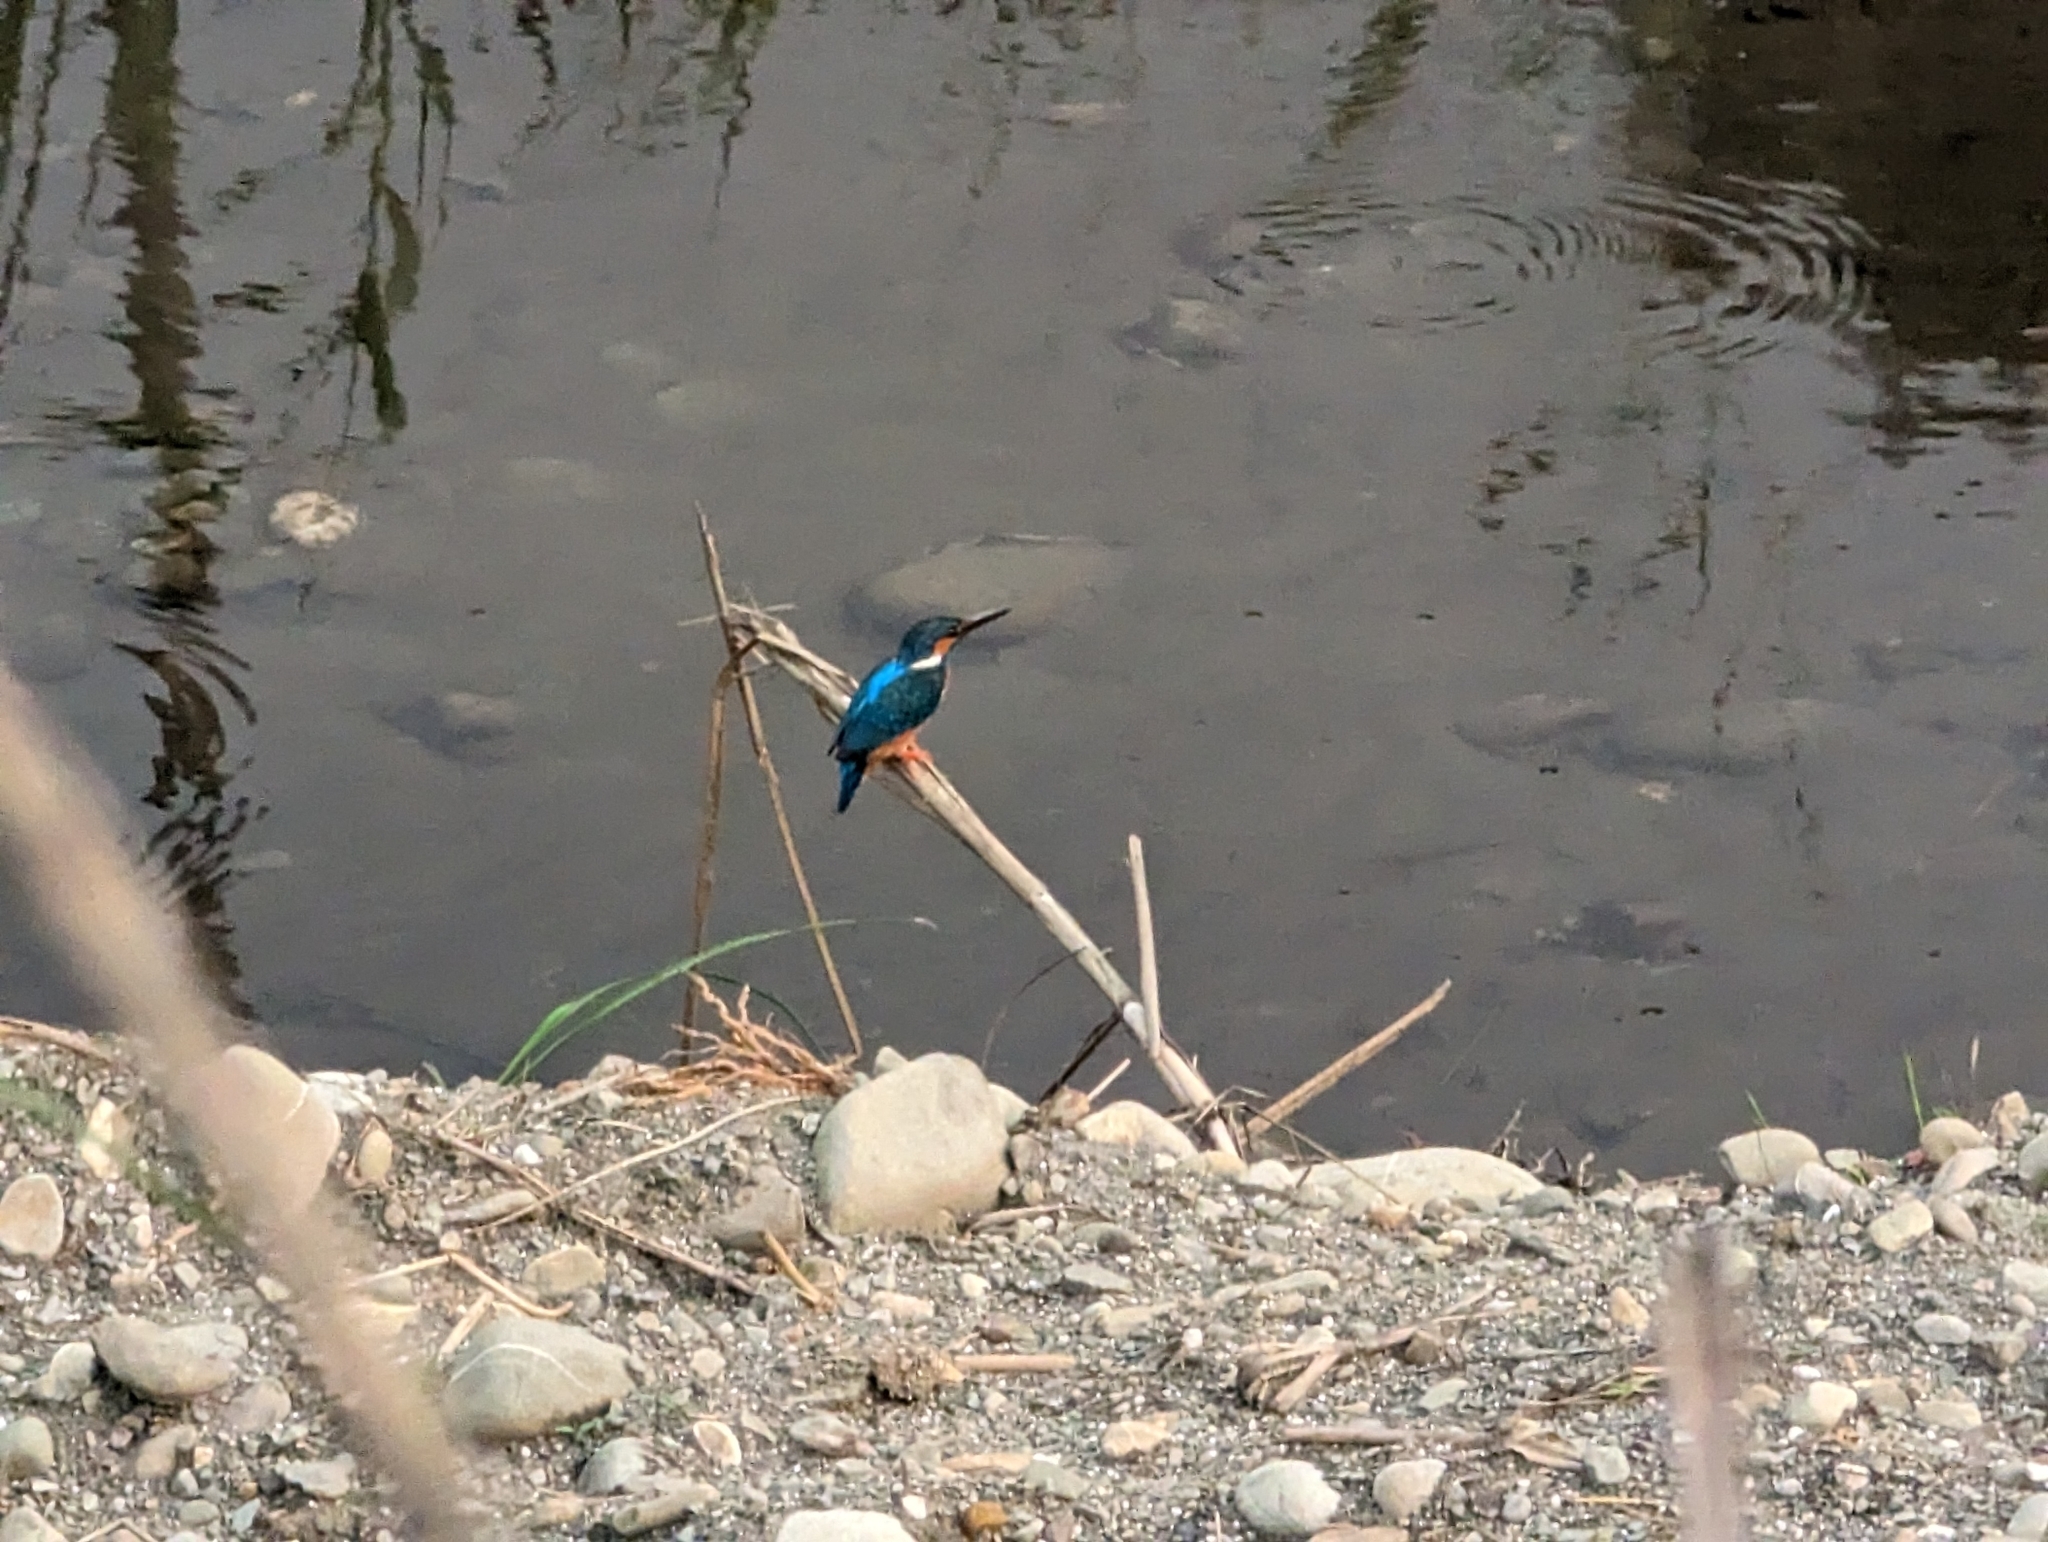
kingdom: Animalia
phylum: Chordata
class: Aves
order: Coraciiformes
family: Alcedinidae
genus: Alcedo
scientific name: Alcedo atthis
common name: Common kingfisher
